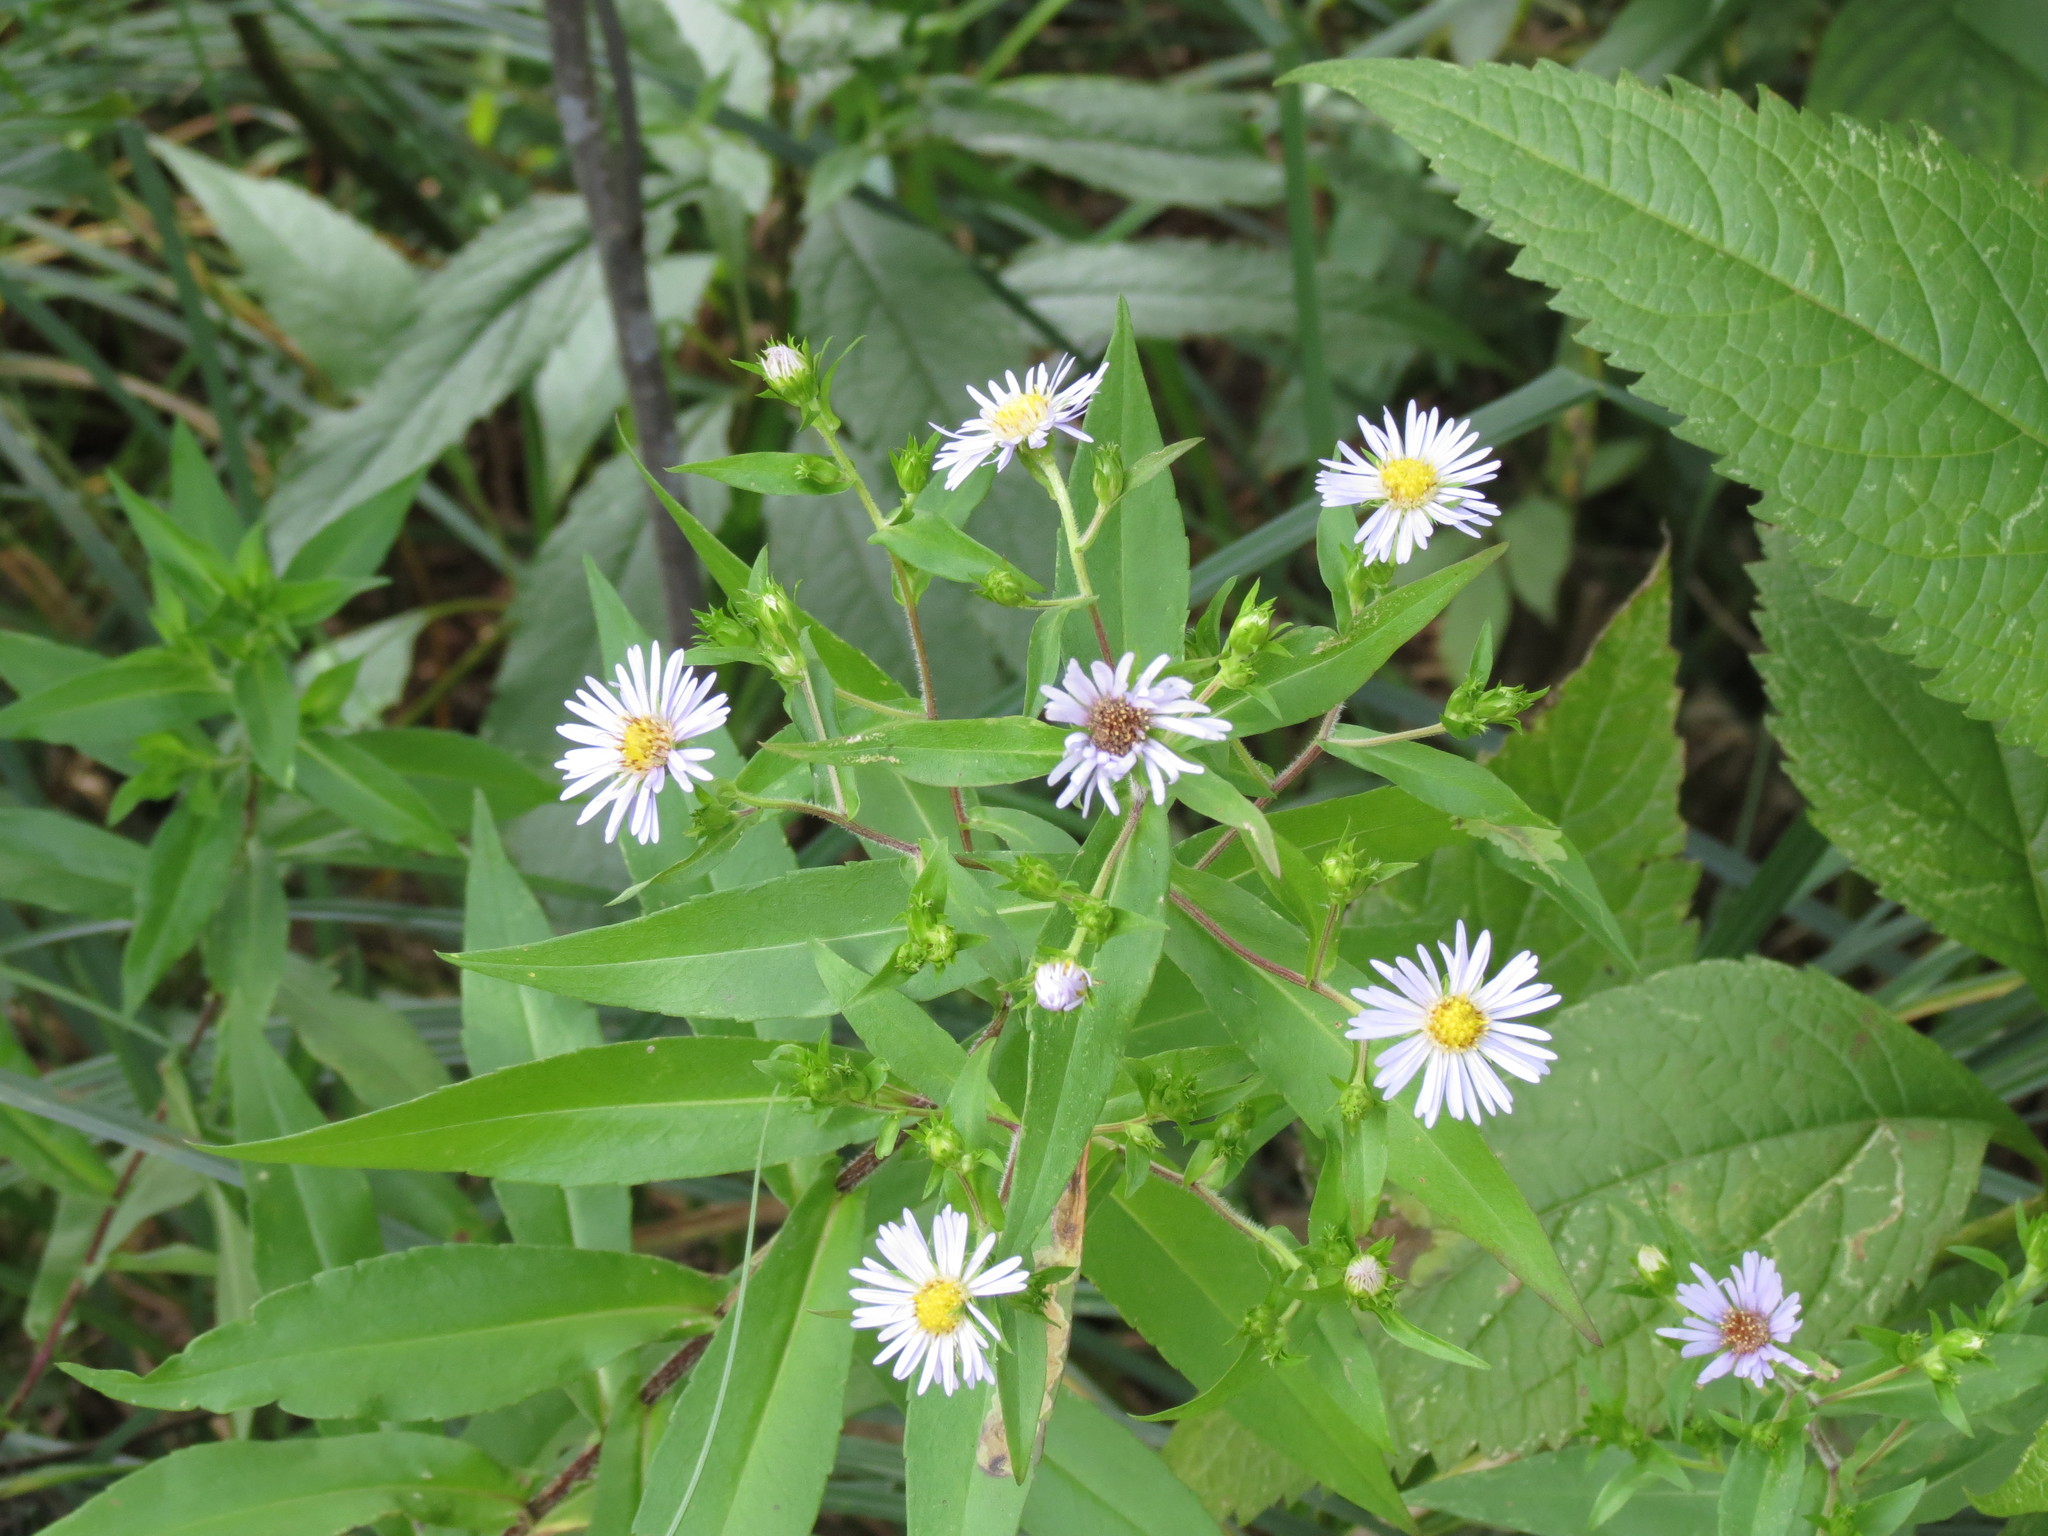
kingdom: Plantae
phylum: Tracheophyta
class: Magnoliopsida
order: Asterales
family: Asteraceae
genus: Symphyotrichum
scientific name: Symphyotrichum puniceum
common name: Bog aster
